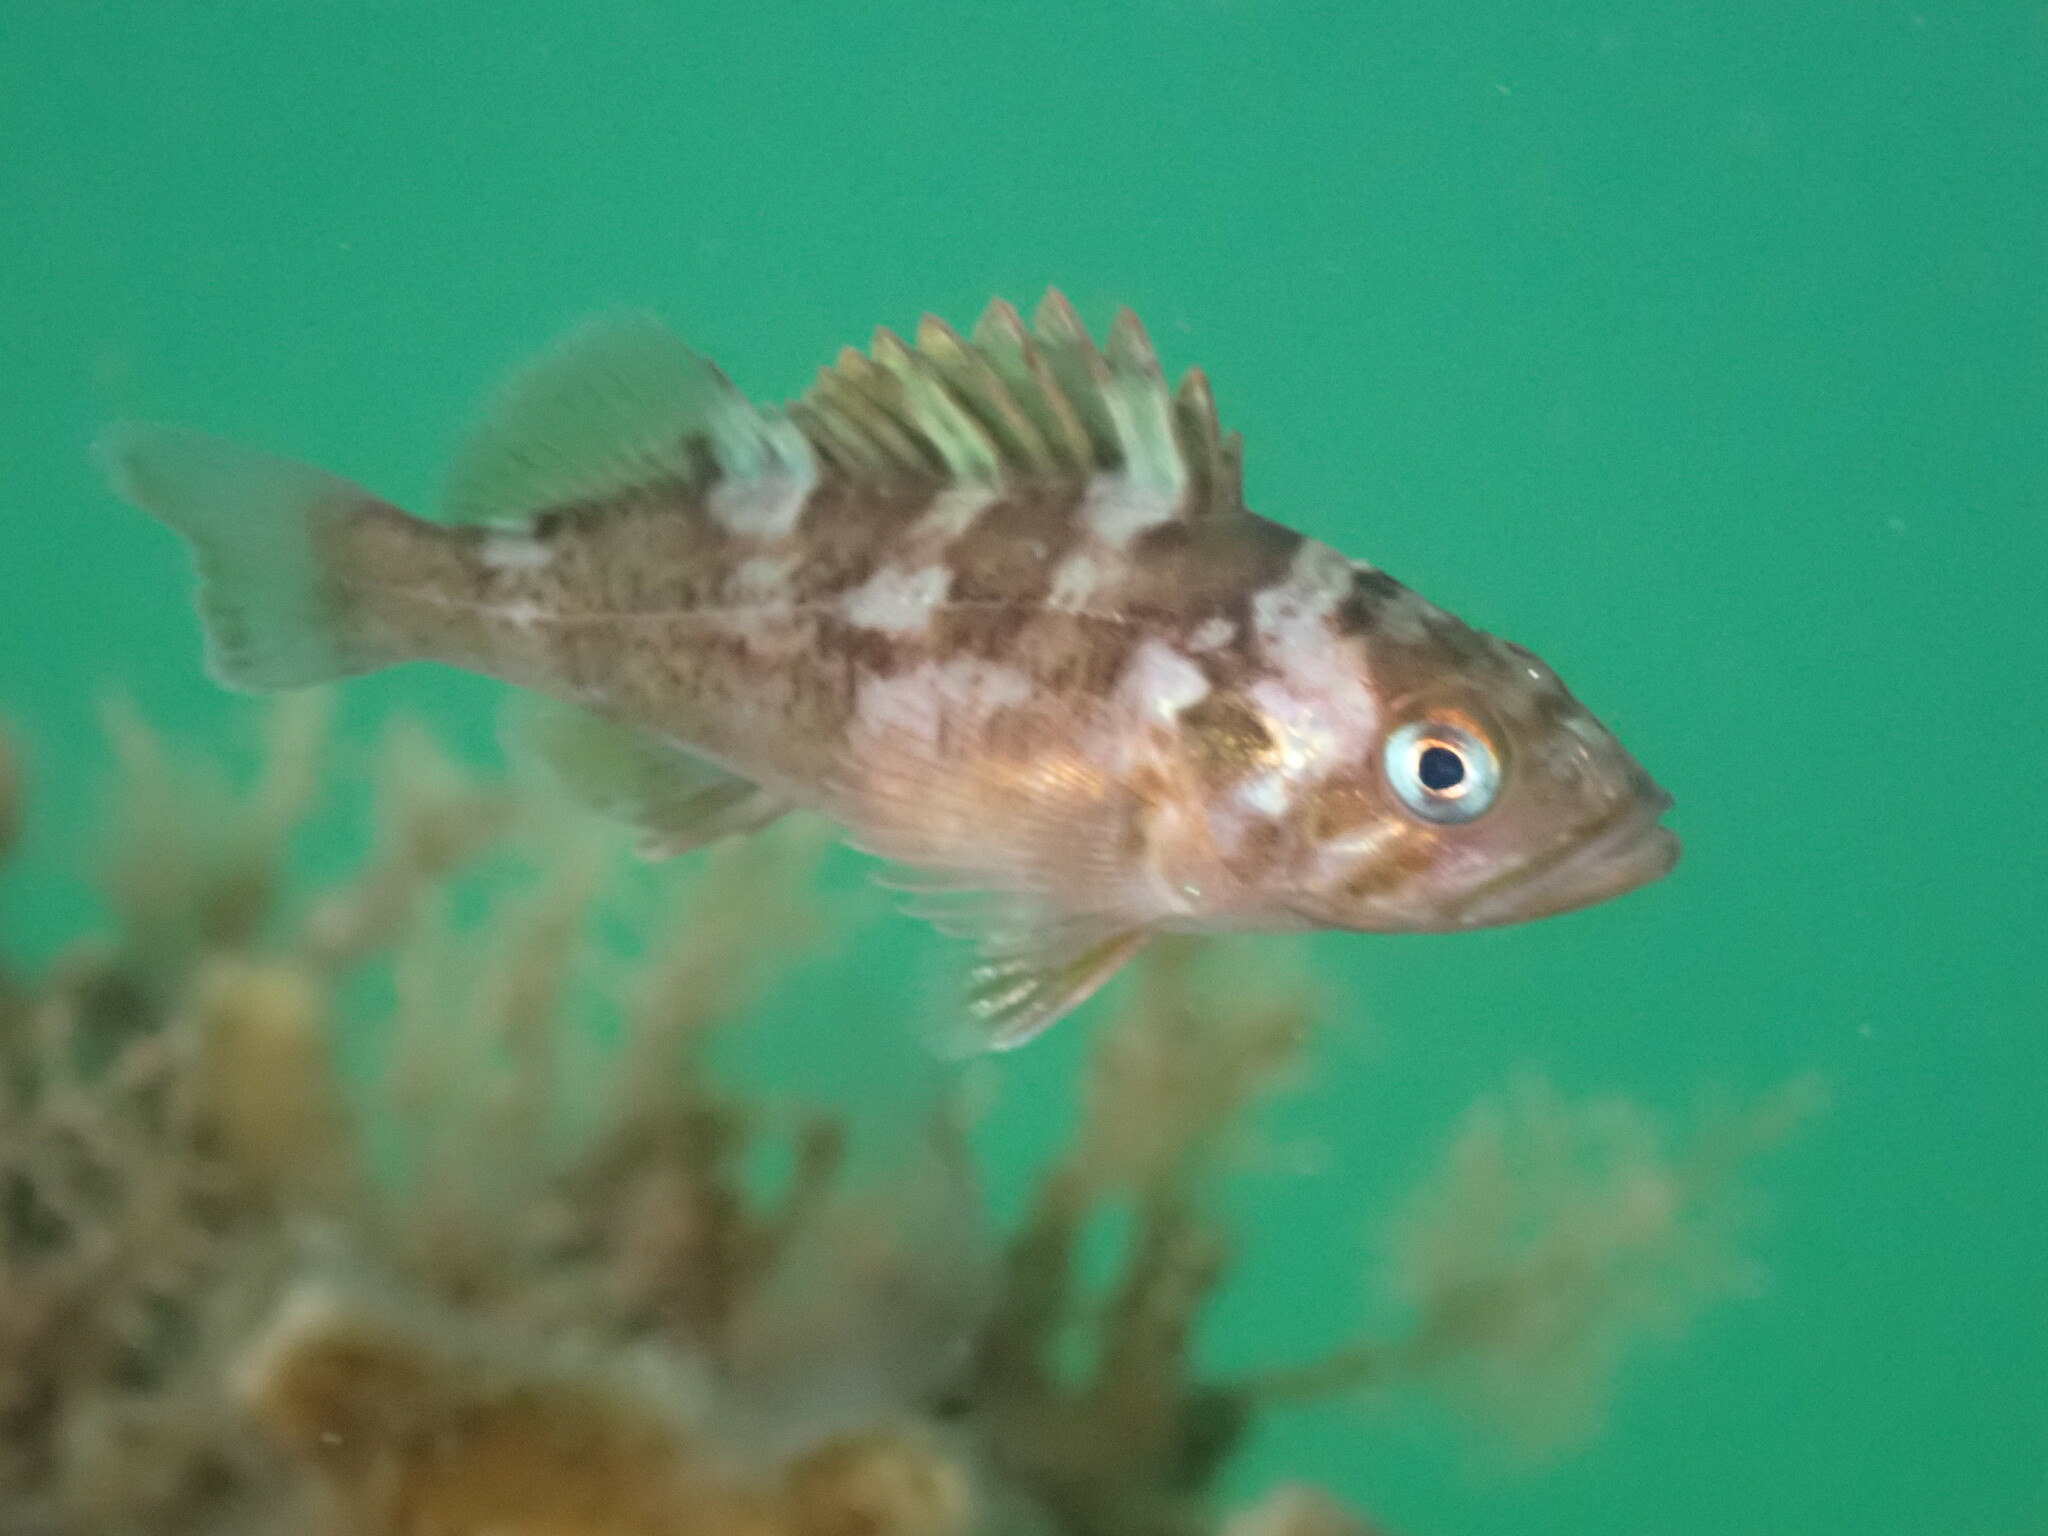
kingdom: Animalia
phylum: Chordata
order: Scorpaeniformes
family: Sebastidae
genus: Sebastes
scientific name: Sebastes carnatus
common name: Gopher rockfish
